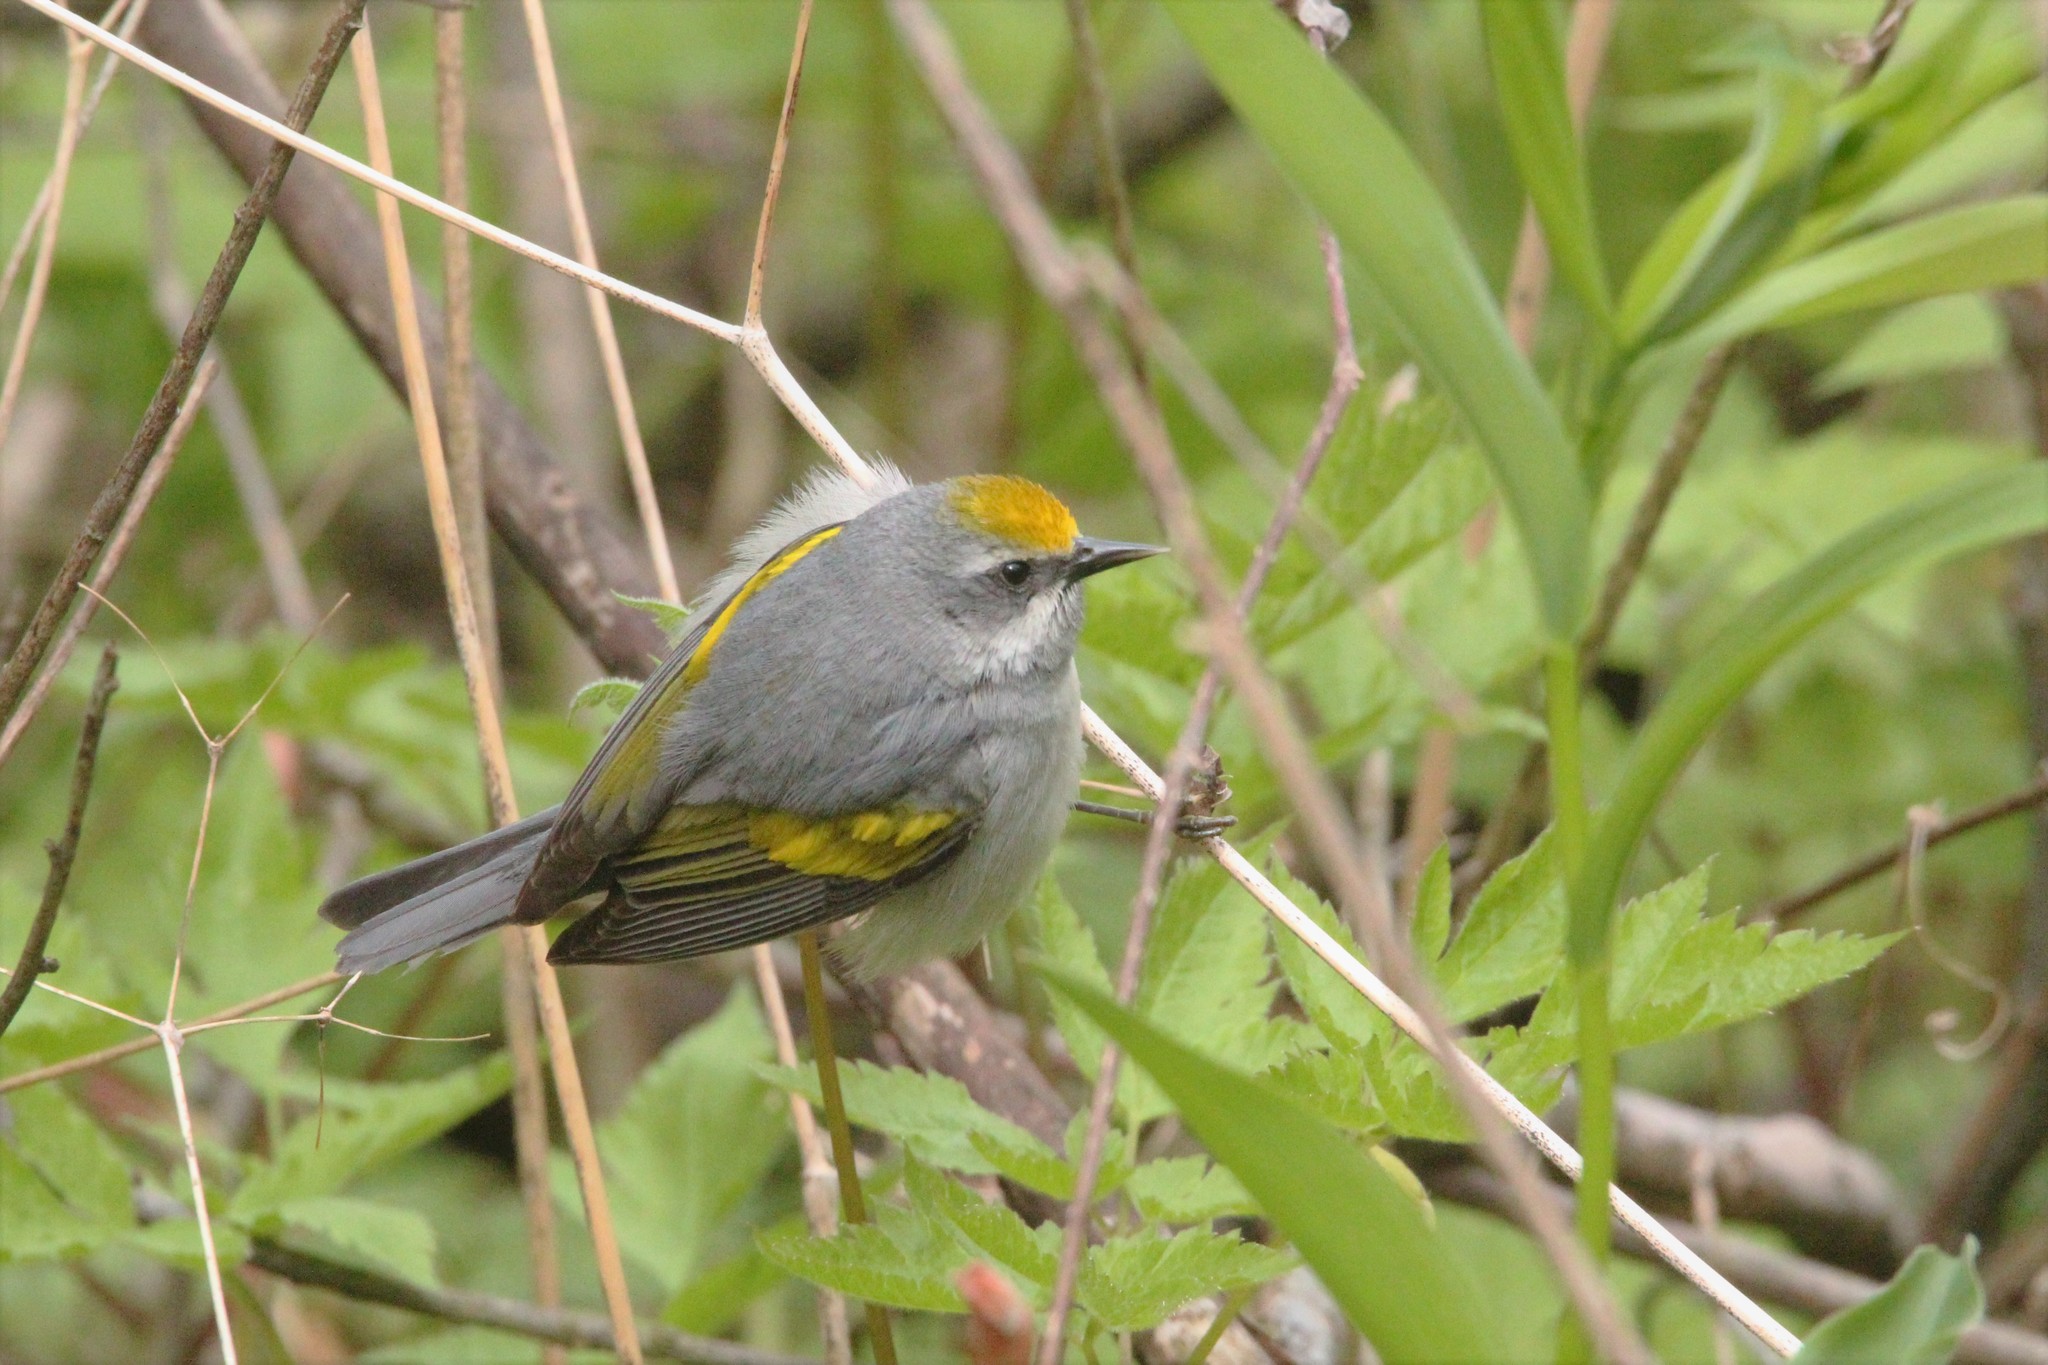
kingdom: Animalia
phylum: Chordata
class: Aves
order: Passeriformes
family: Parulidae
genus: Vermivora
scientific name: Vermivora chrysoptera
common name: Golden-winged warbler
